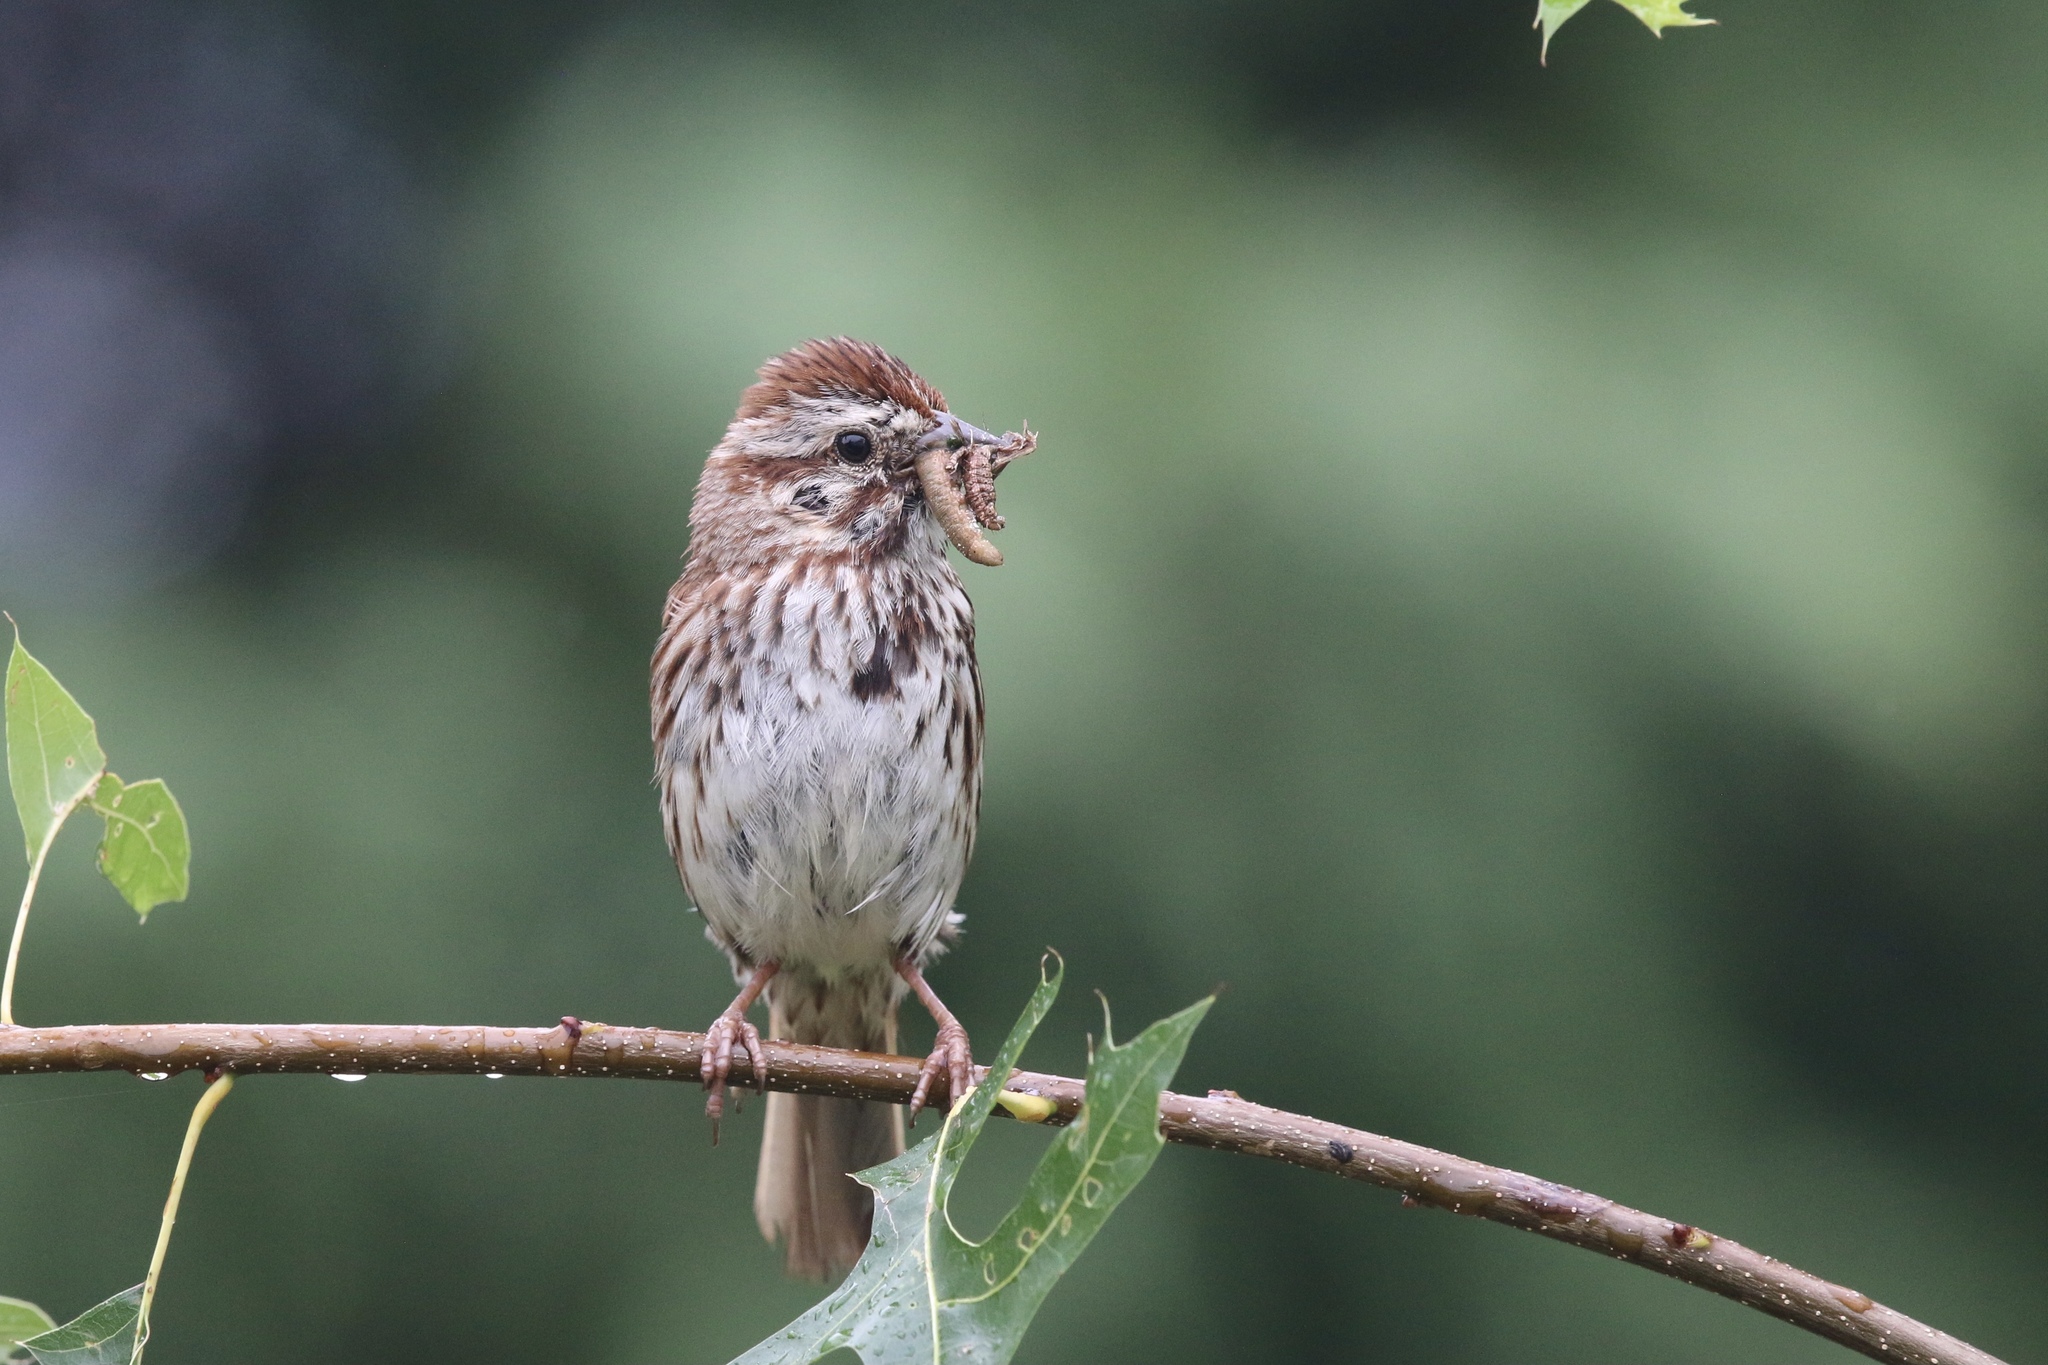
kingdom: Animalia
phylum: Chordata
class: Aves
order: Passeriformes
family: Passerellidae
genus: Melospiza
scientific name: Melospiza melodia
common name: Song sparrow
